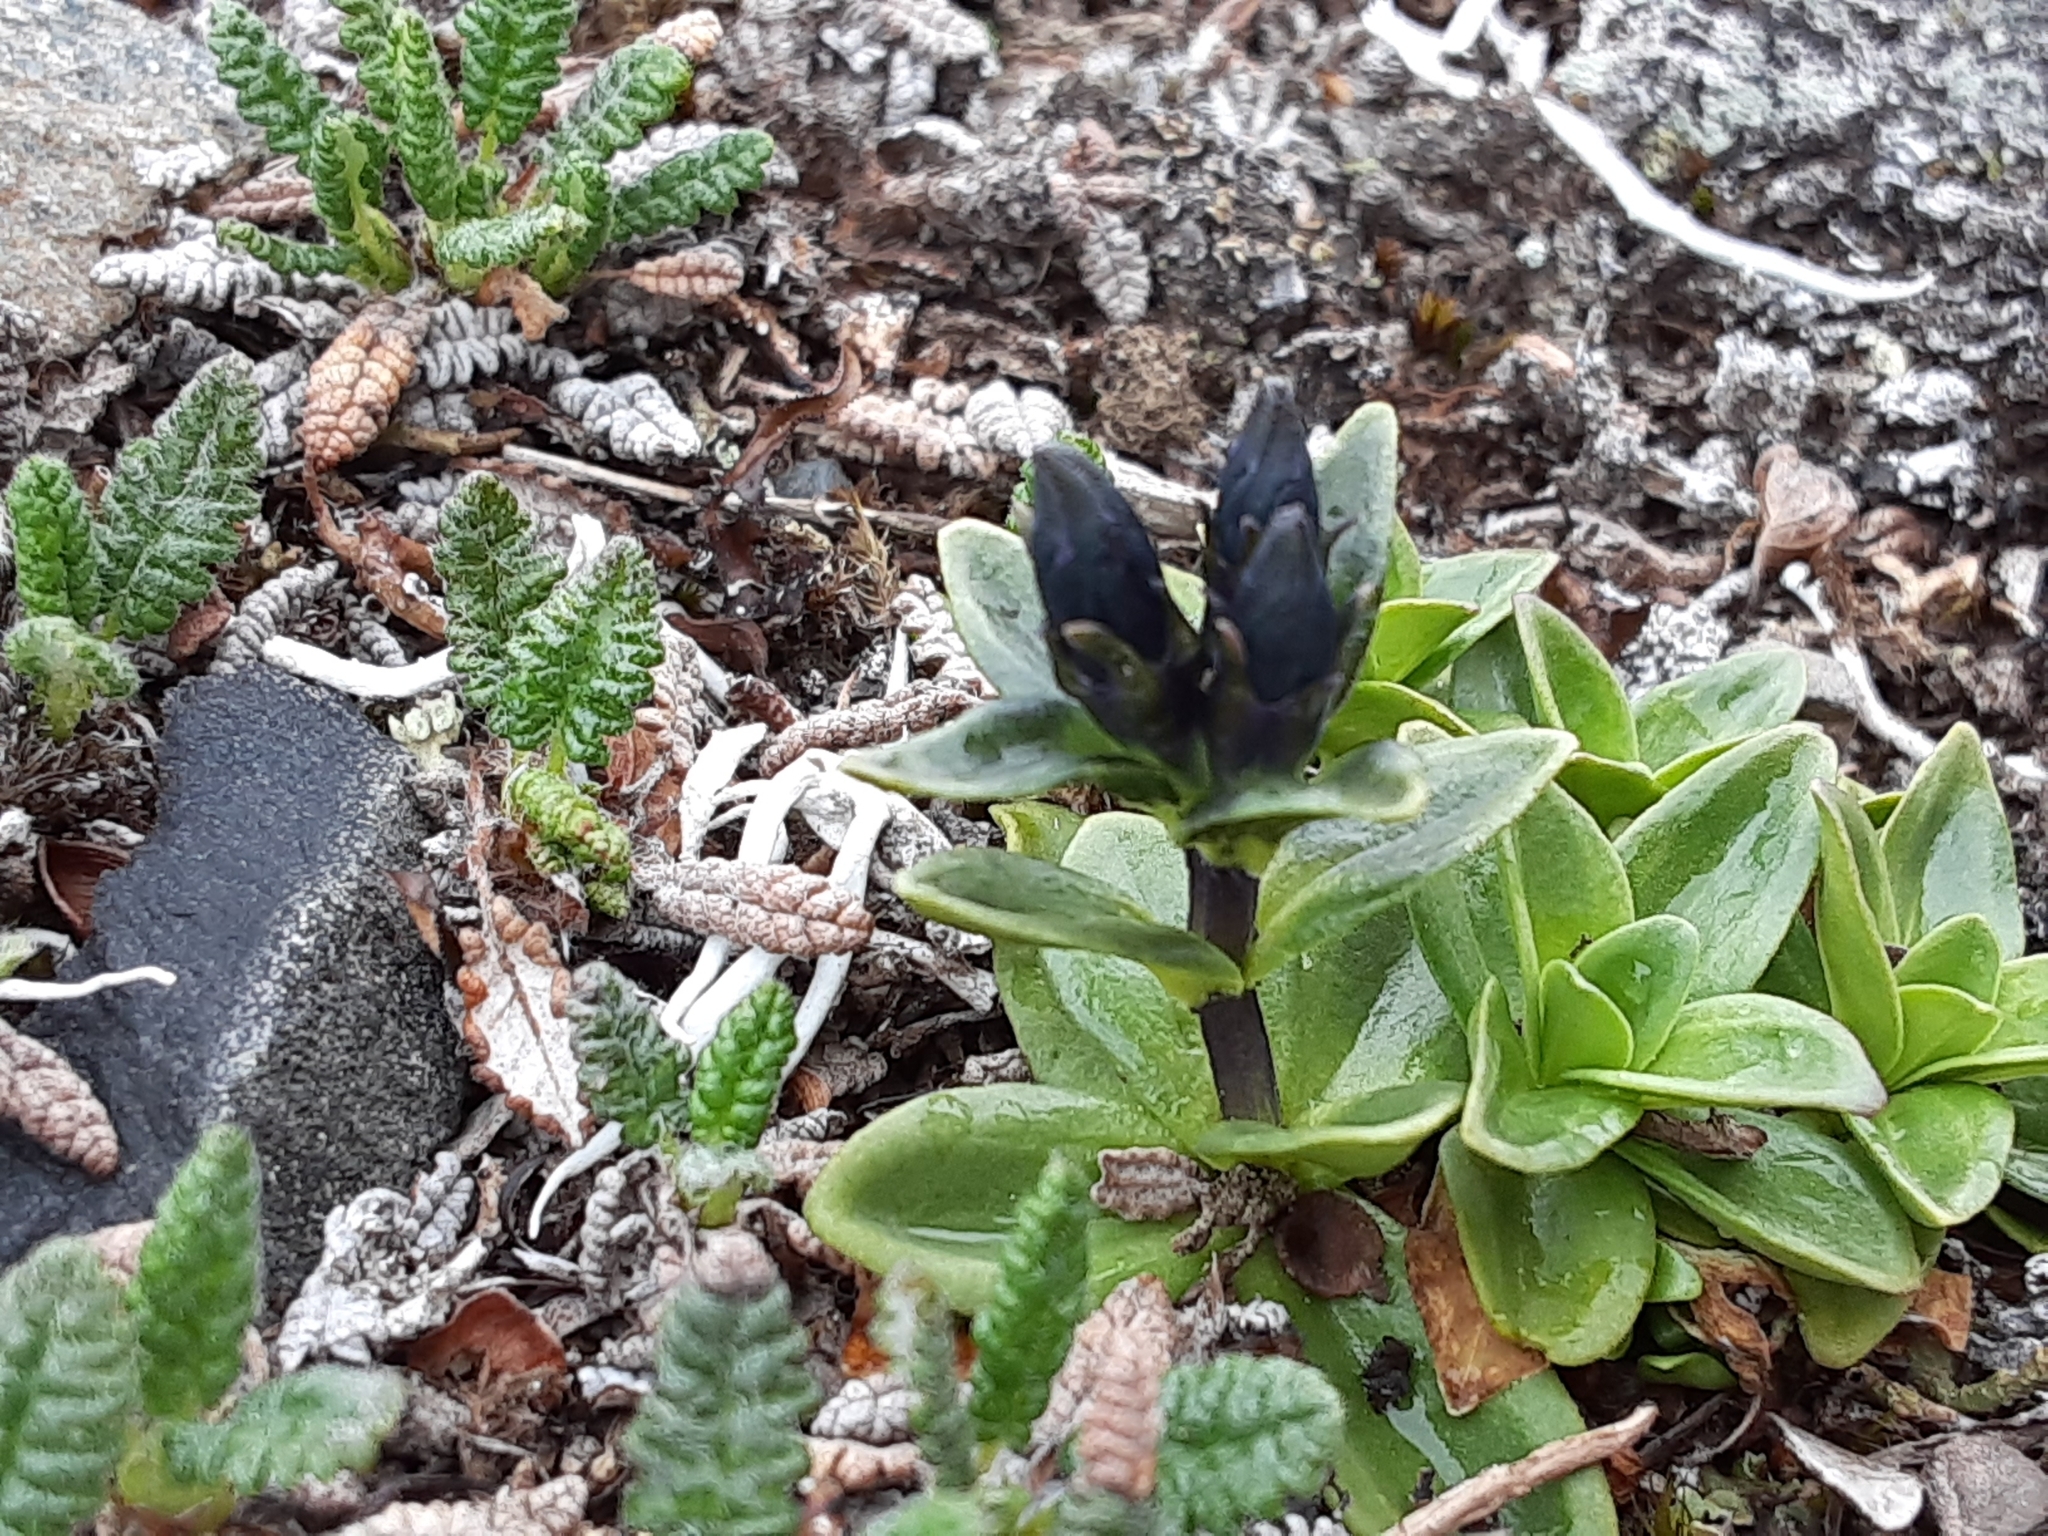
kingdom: Plantae
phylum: Tracheophyta
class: Magnoliopsida
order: Gentianales
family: Gentianaceae
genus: Gentiana
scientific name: Gentiana glauca
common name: Alpine gentian
